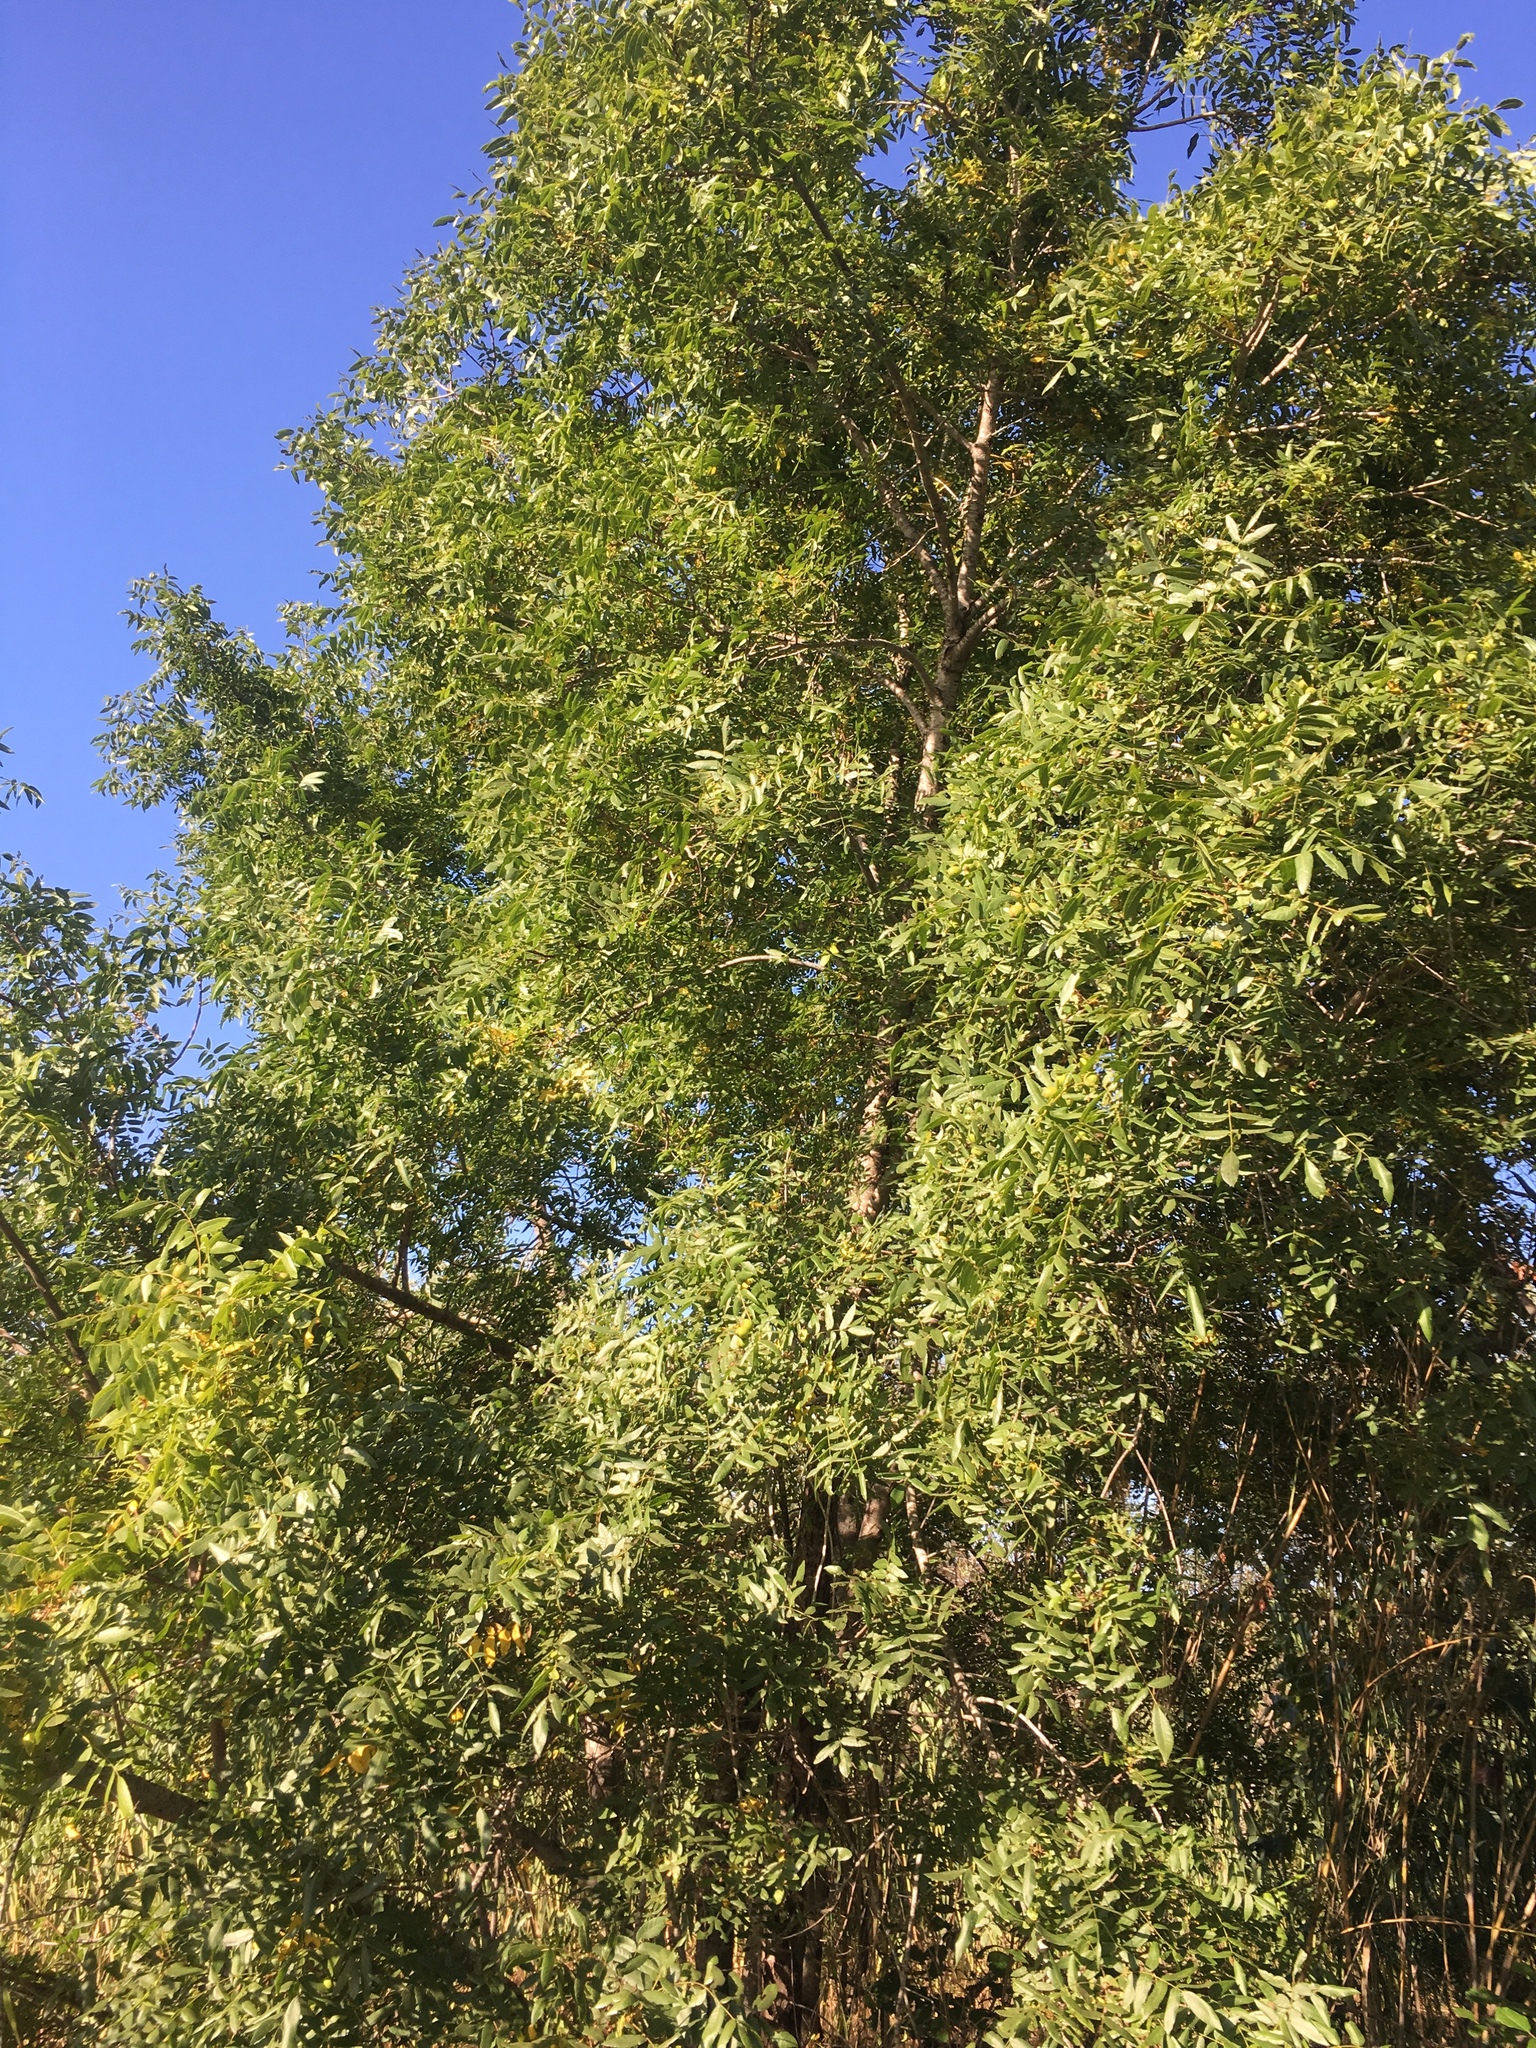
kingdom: Plantae
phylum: Tracheophyta
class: Magnoliopsida
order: Fagales
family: Juglandaceae
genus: Juglans
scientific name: Juglans californica
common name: Southern california black walnut
